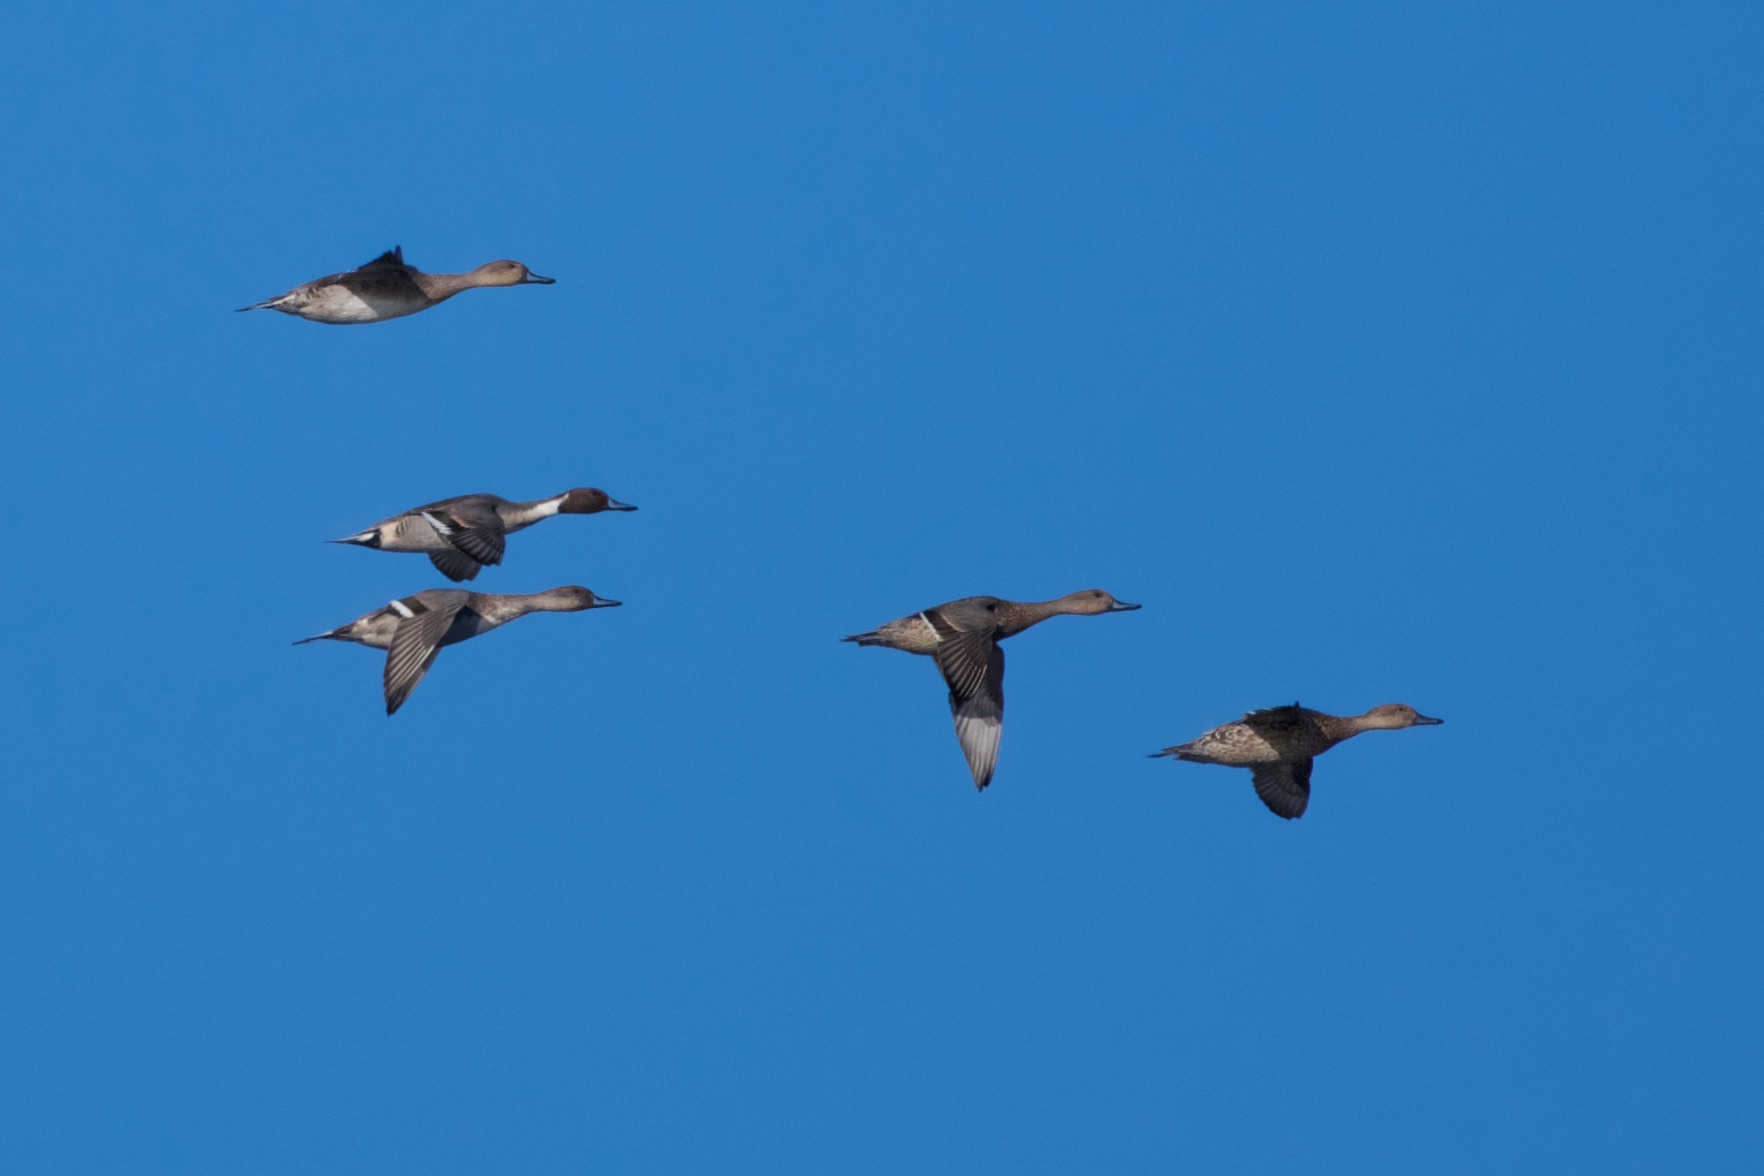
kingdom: Animalia
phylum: Chordata
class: Aves
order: Anseriformes
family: Anatidae
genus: Anas
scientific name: Anas acuta
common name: Northern pintail
